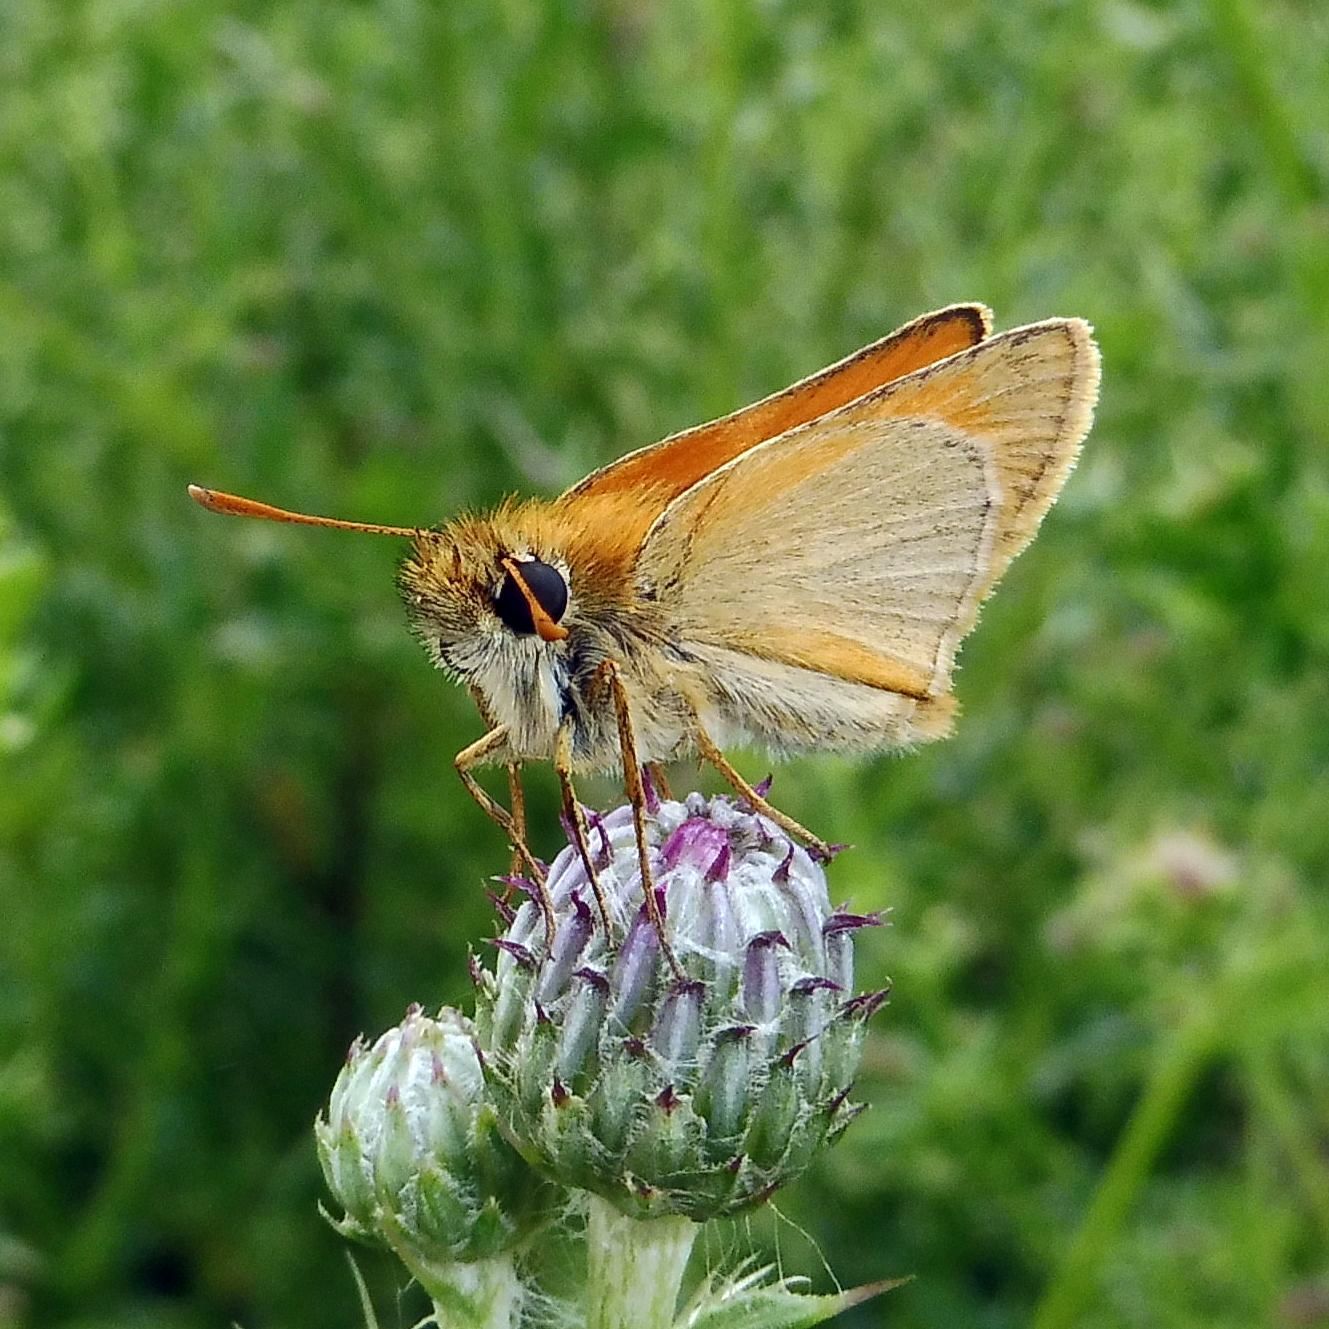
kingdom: Animalia
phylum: Arthropoda
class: Insecta
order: Lepidoptera
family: Hesperiidae
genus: Thymelicus
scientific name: Thymelicus sylvestris
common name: Small skipper
